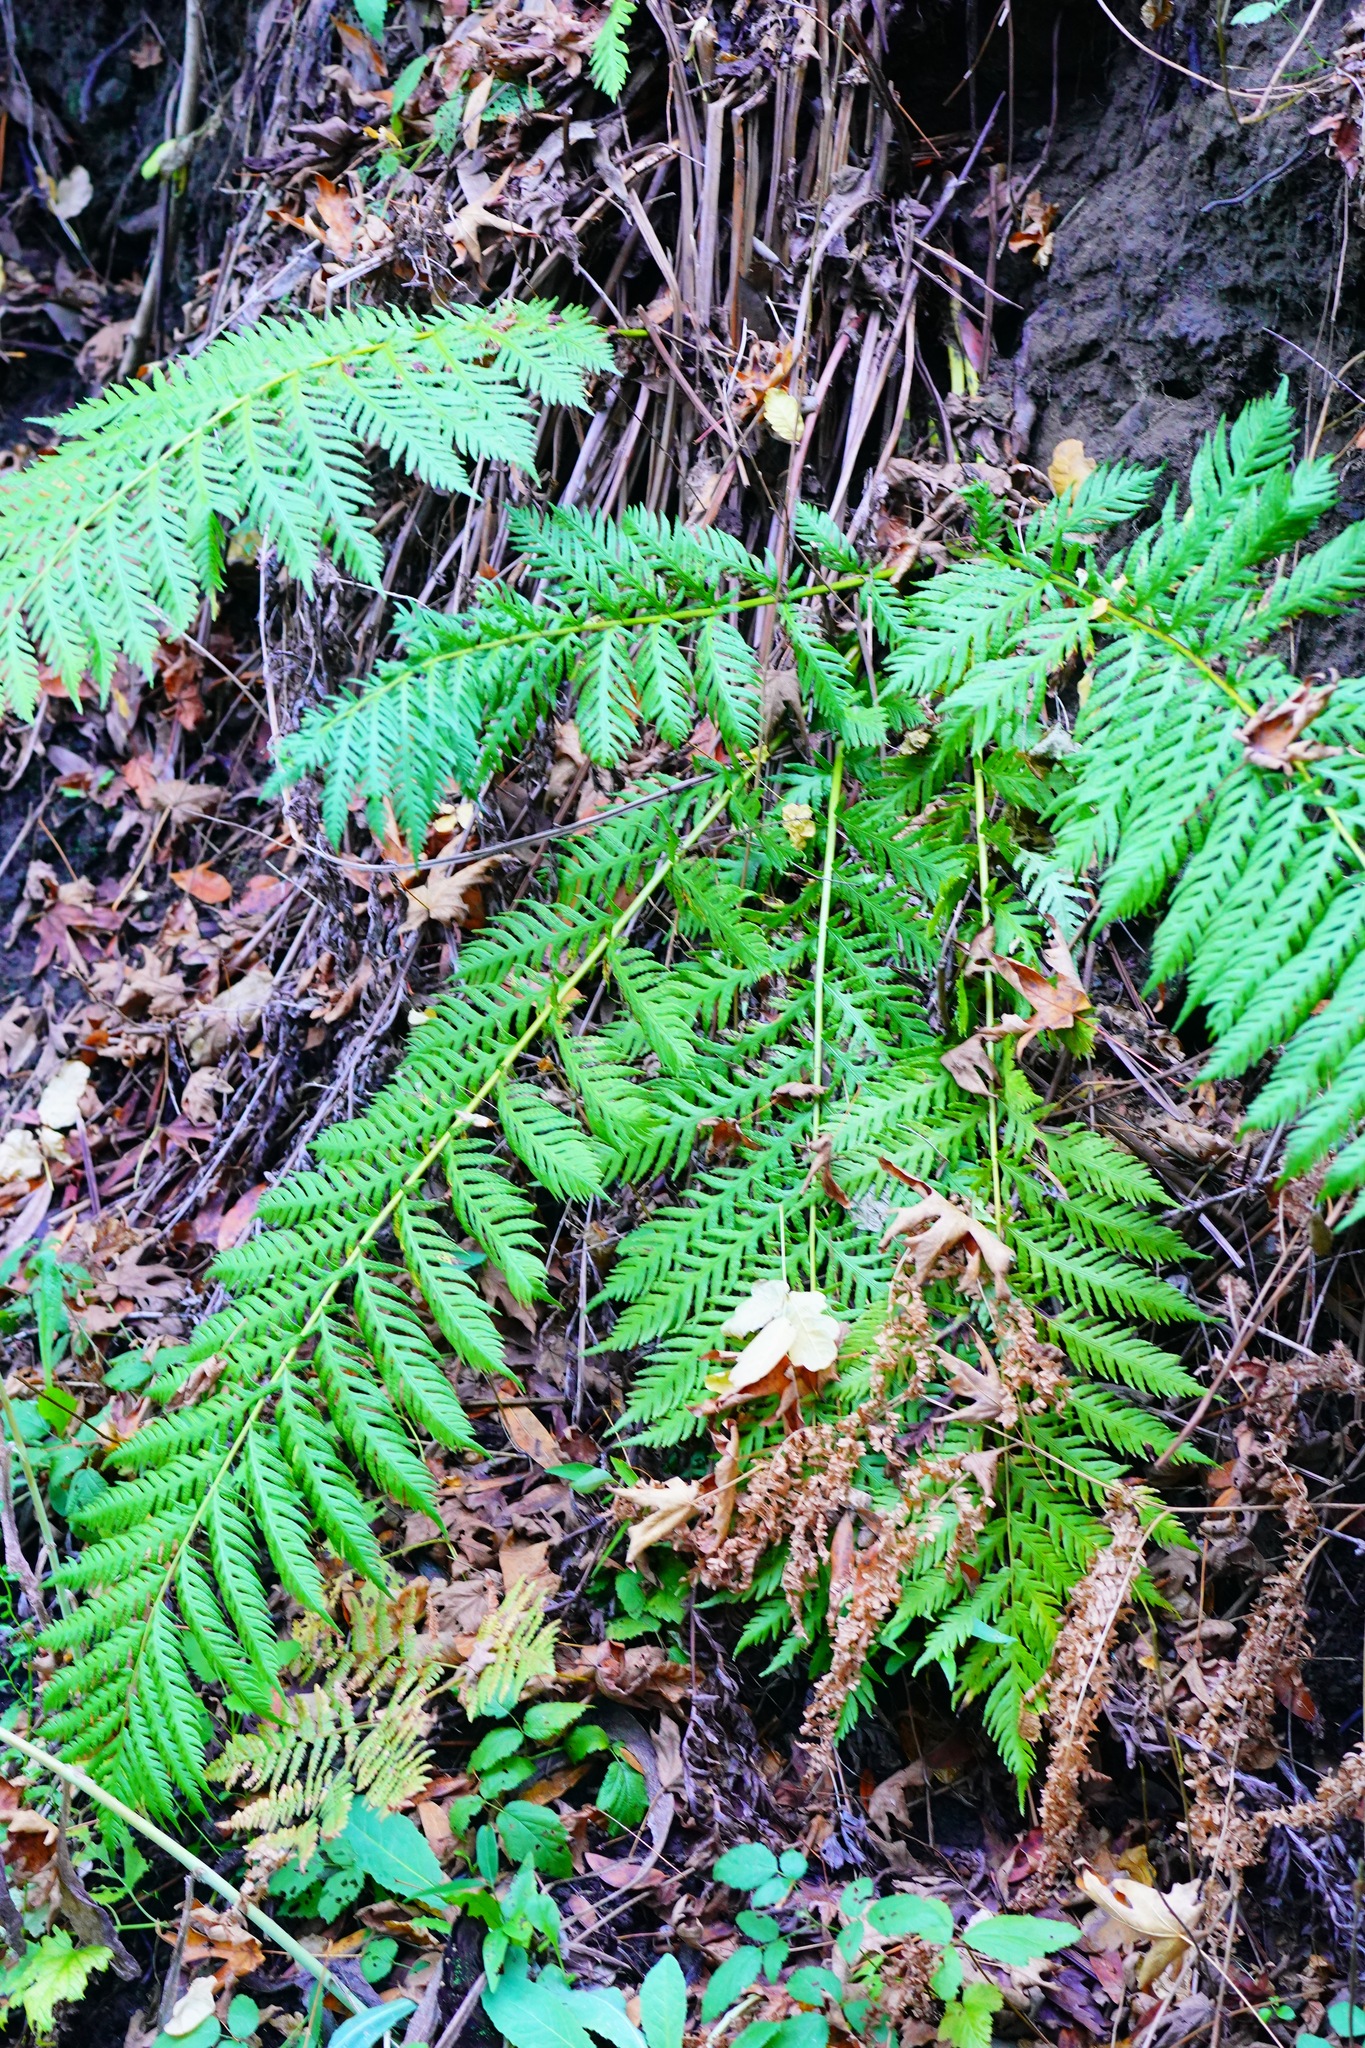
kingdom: Plantae
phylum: Tracheophyta
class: Polypodiopsida
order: Polypodiales
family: Blechnaceae
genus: Woodwardia
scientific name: Woodwardia fimbriata
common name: Giant chain fern
